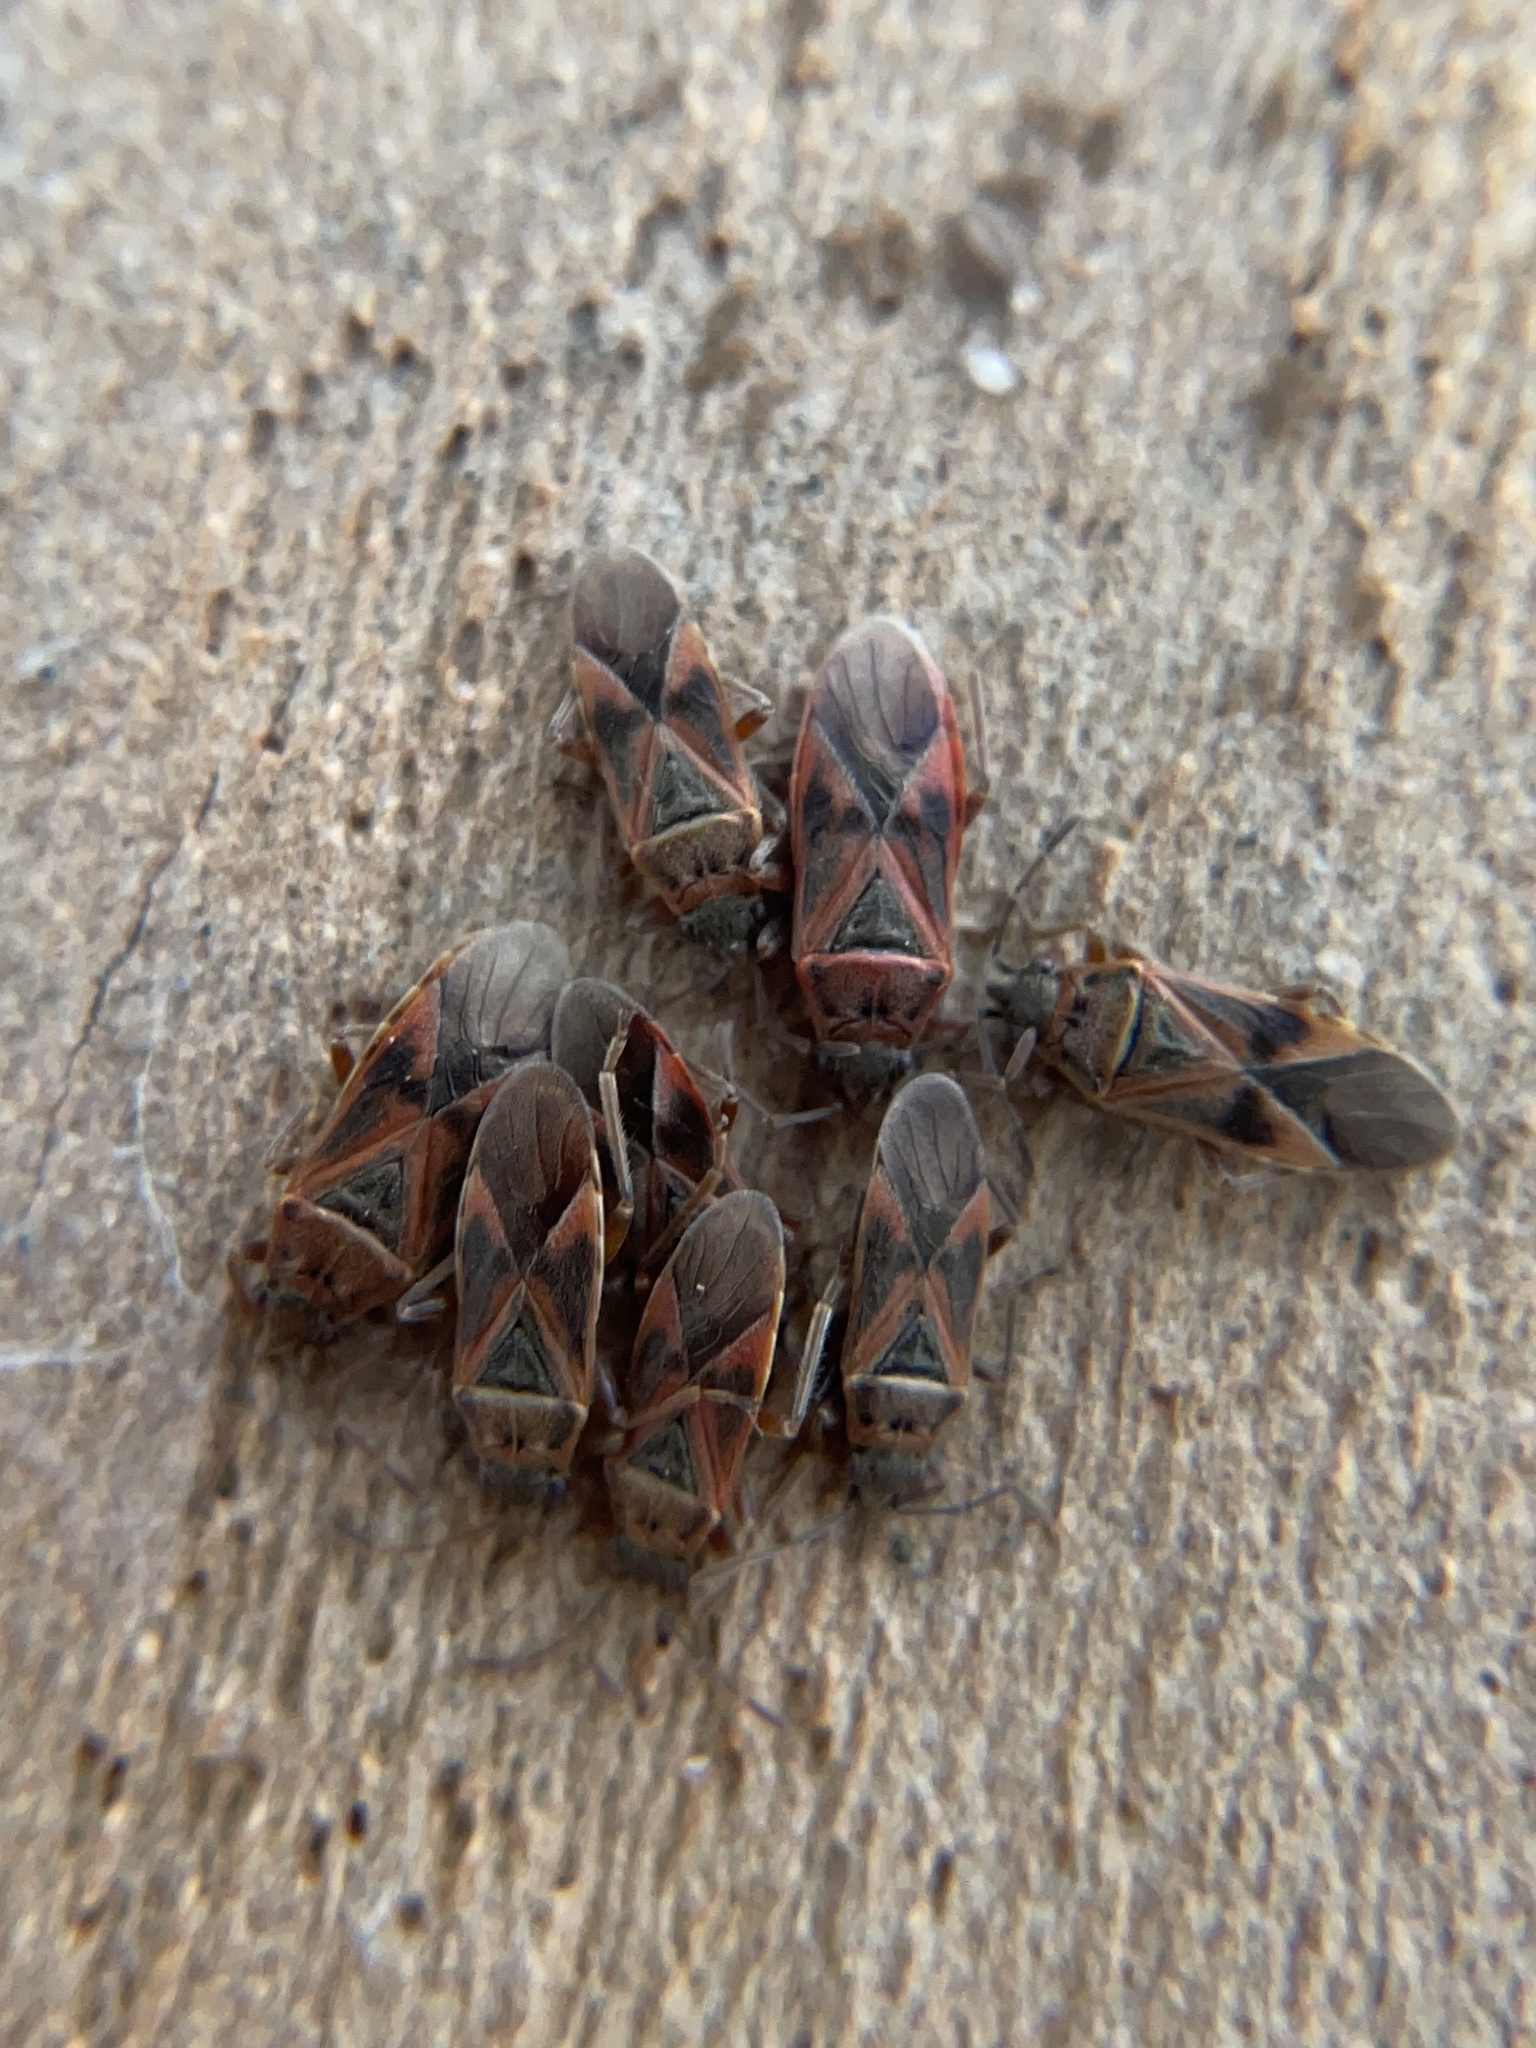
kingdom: Animalia
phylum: Arthropoda
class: Insecta
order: Hemiptera
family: Lygaeidae
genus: Arocatus
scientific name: Arocatus roeselii
